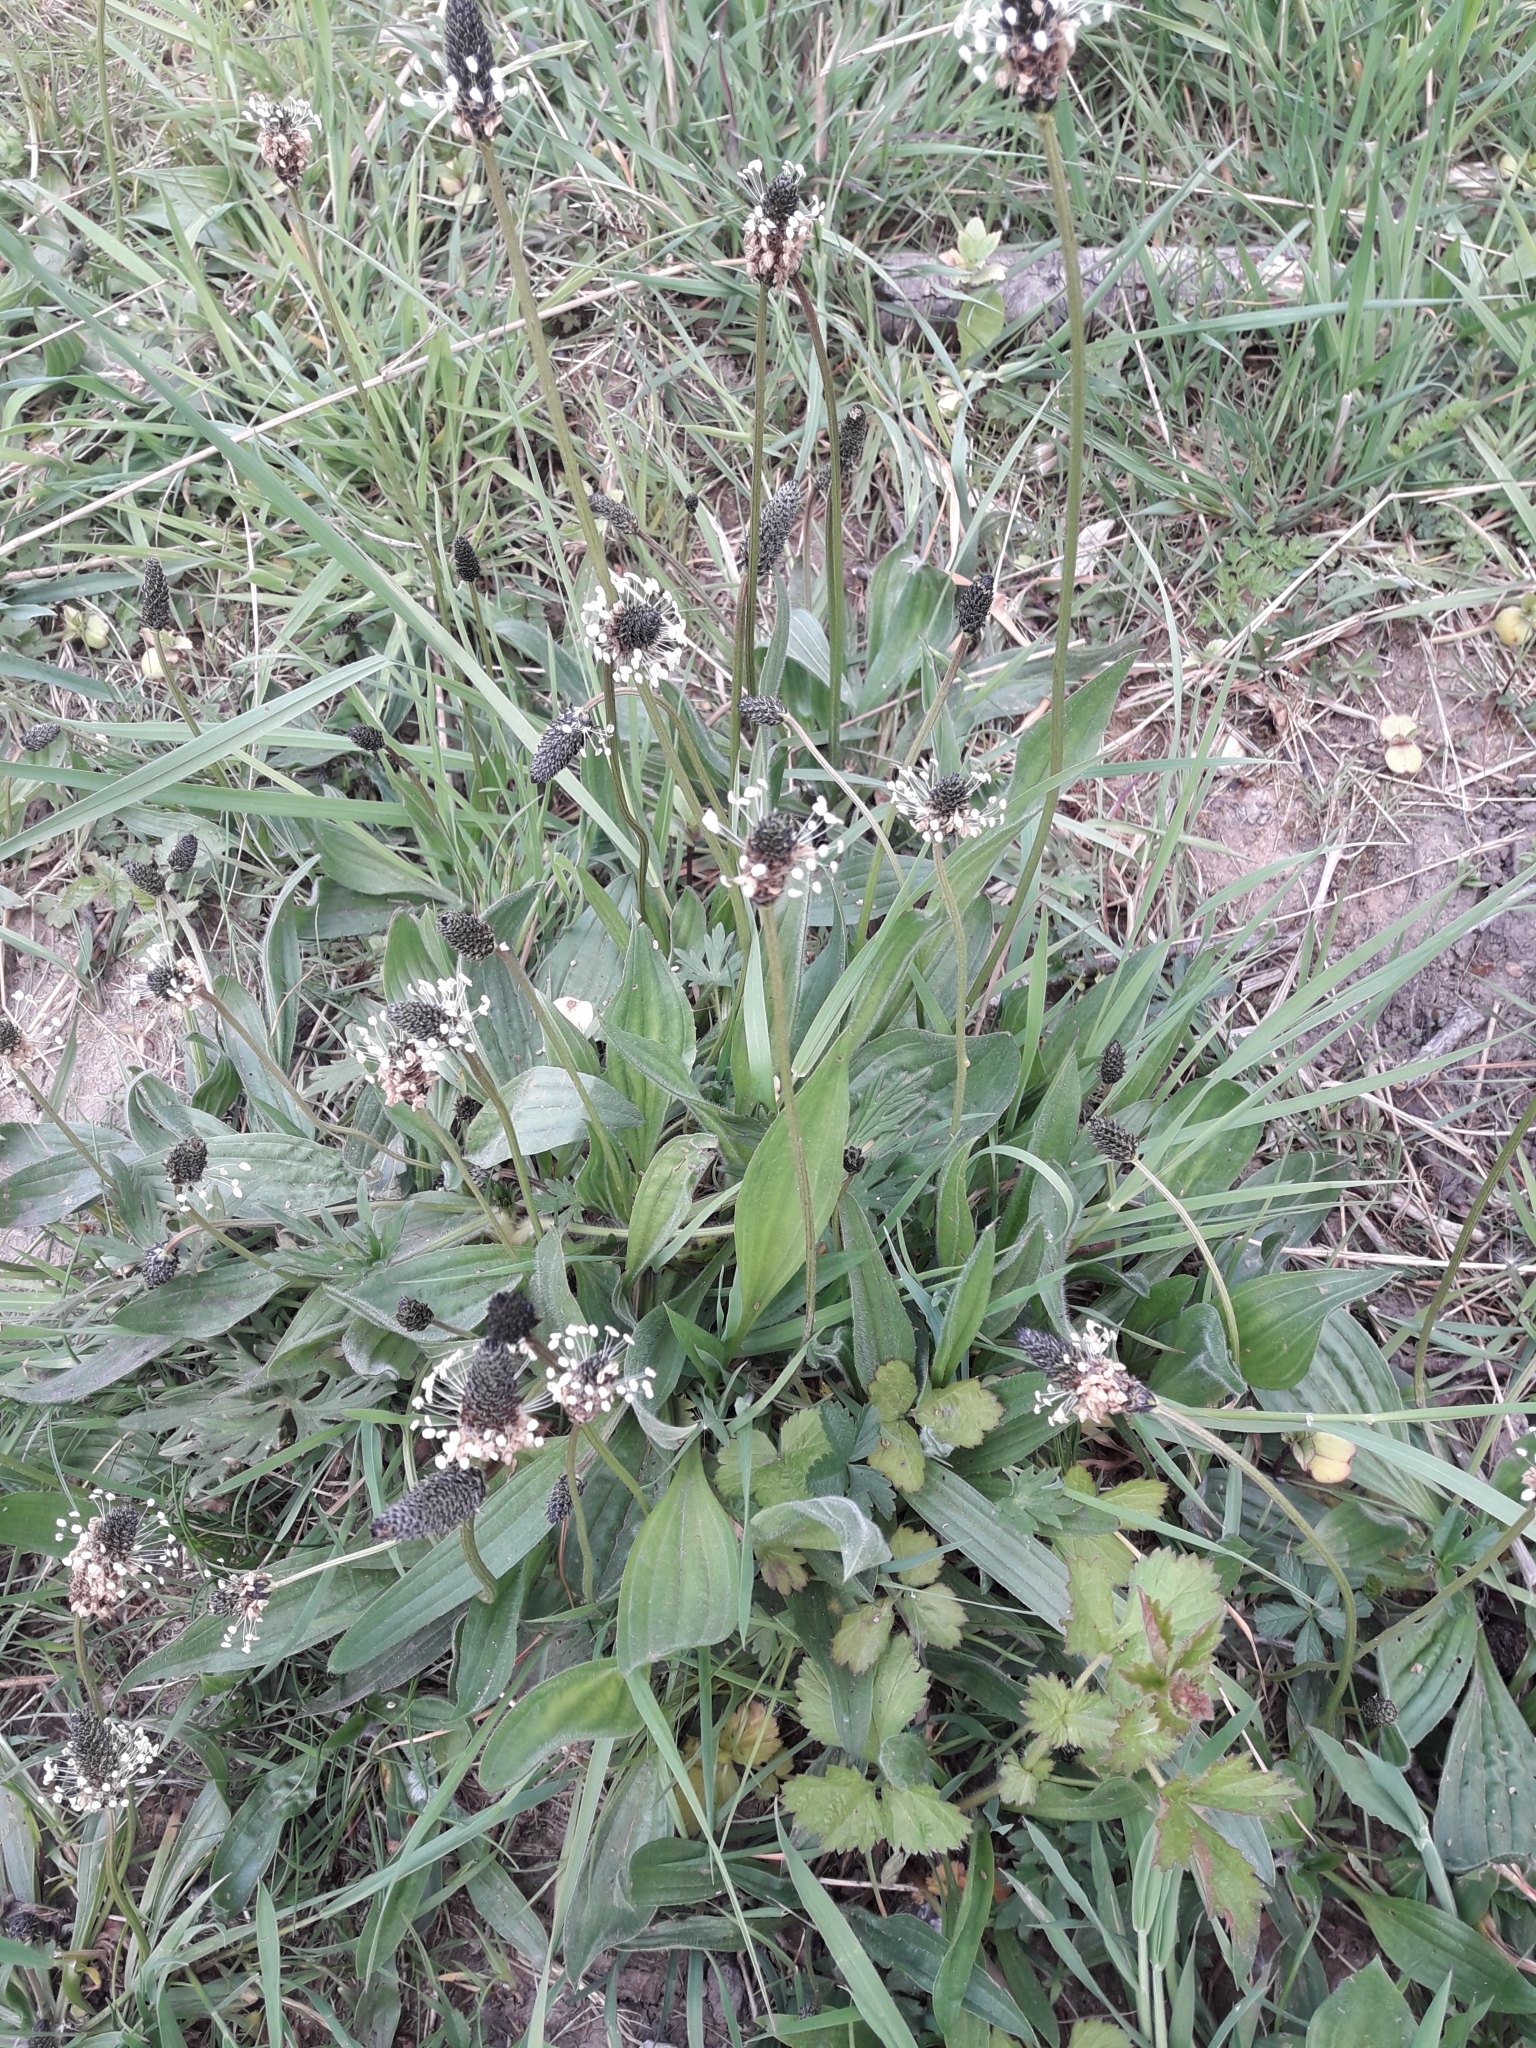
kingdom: Plantae
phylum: Tracheophyta
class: Magnoliopsida
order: Lamiales
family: Plantaginaceae
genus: Plantago
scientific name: Plantago lanceolata
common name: Ribwort plantain
